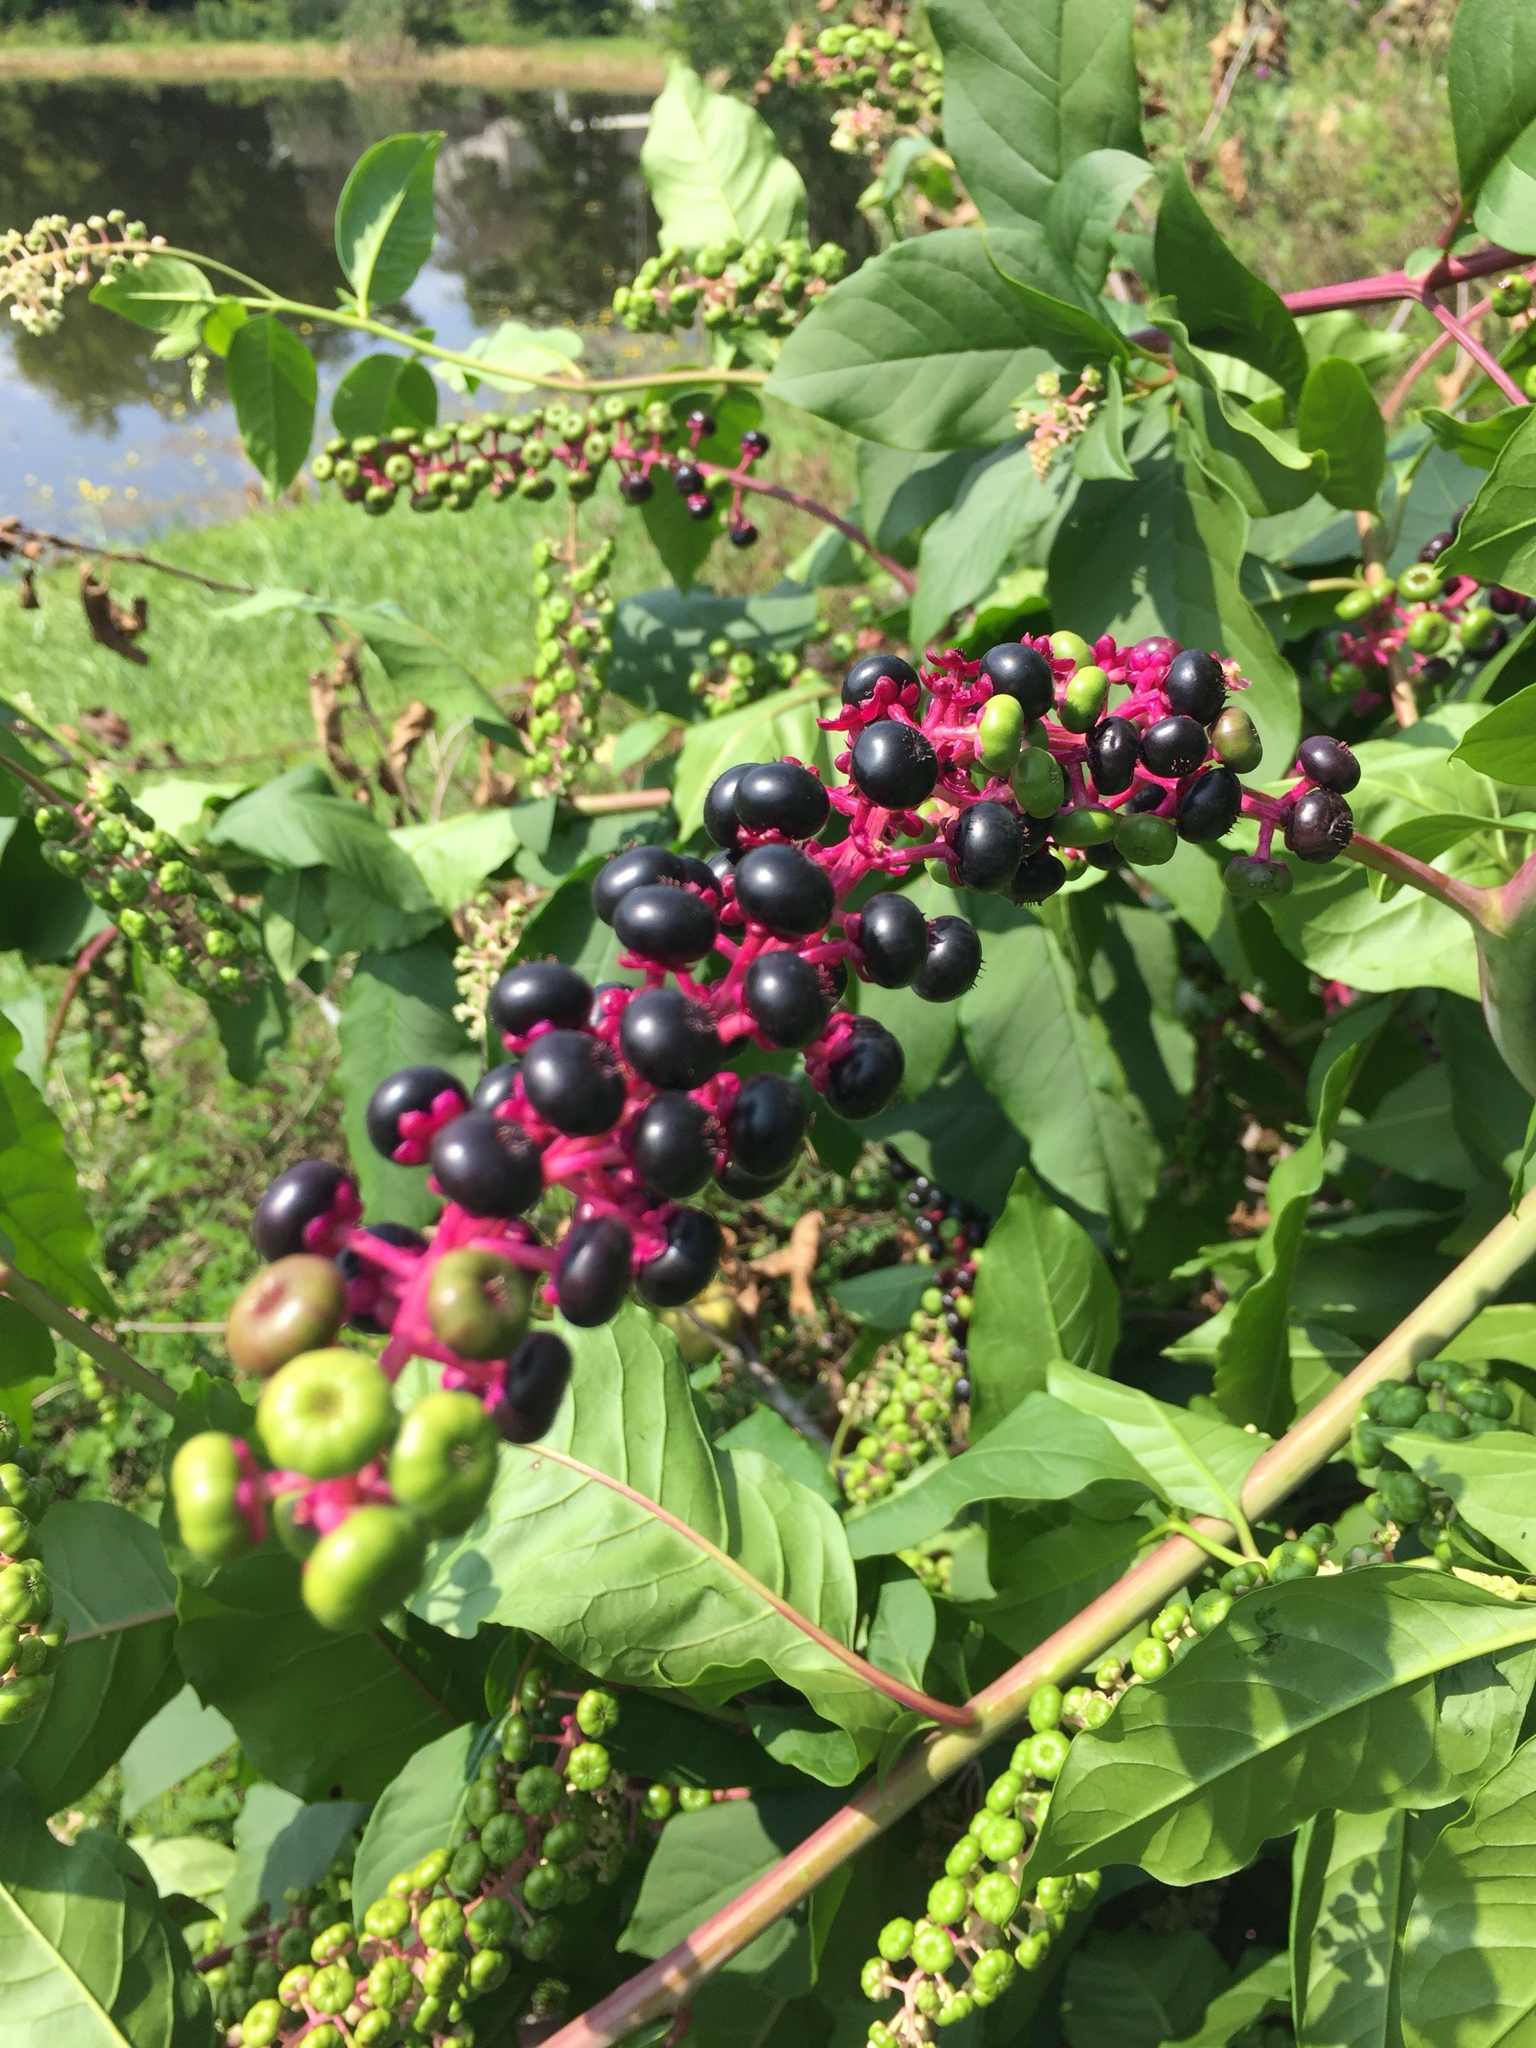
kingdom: Plantae
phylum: Tracheophyta
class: Magnoliopsida
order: Caryophyllales
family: Phytolaccaceae
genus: Phytolacca
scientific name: Phytolacca americana
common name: American pokeweed
